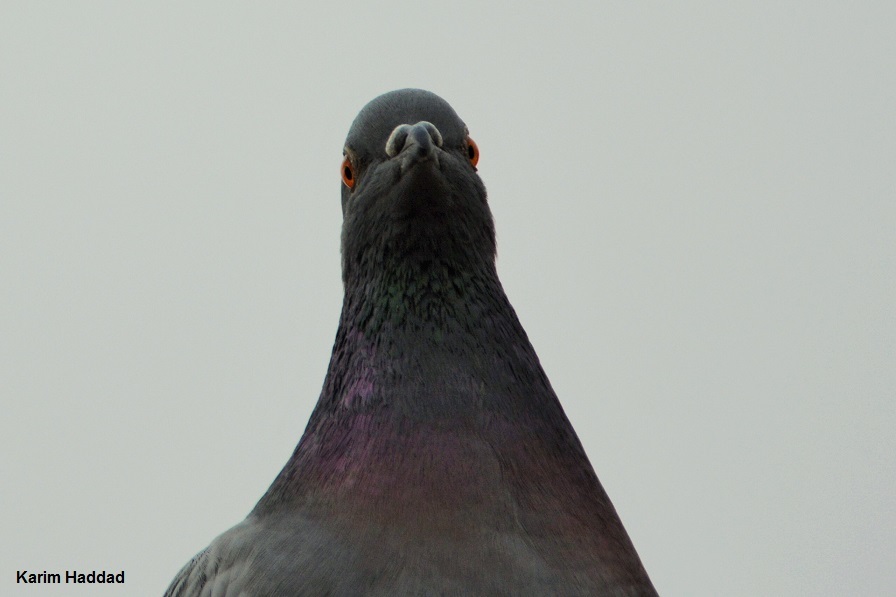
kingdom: Animalia
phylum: Chordata
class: Aves
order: Columbiformes
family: Columbidae
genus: Columba
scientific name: Columba livia
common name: Rock pigeon
